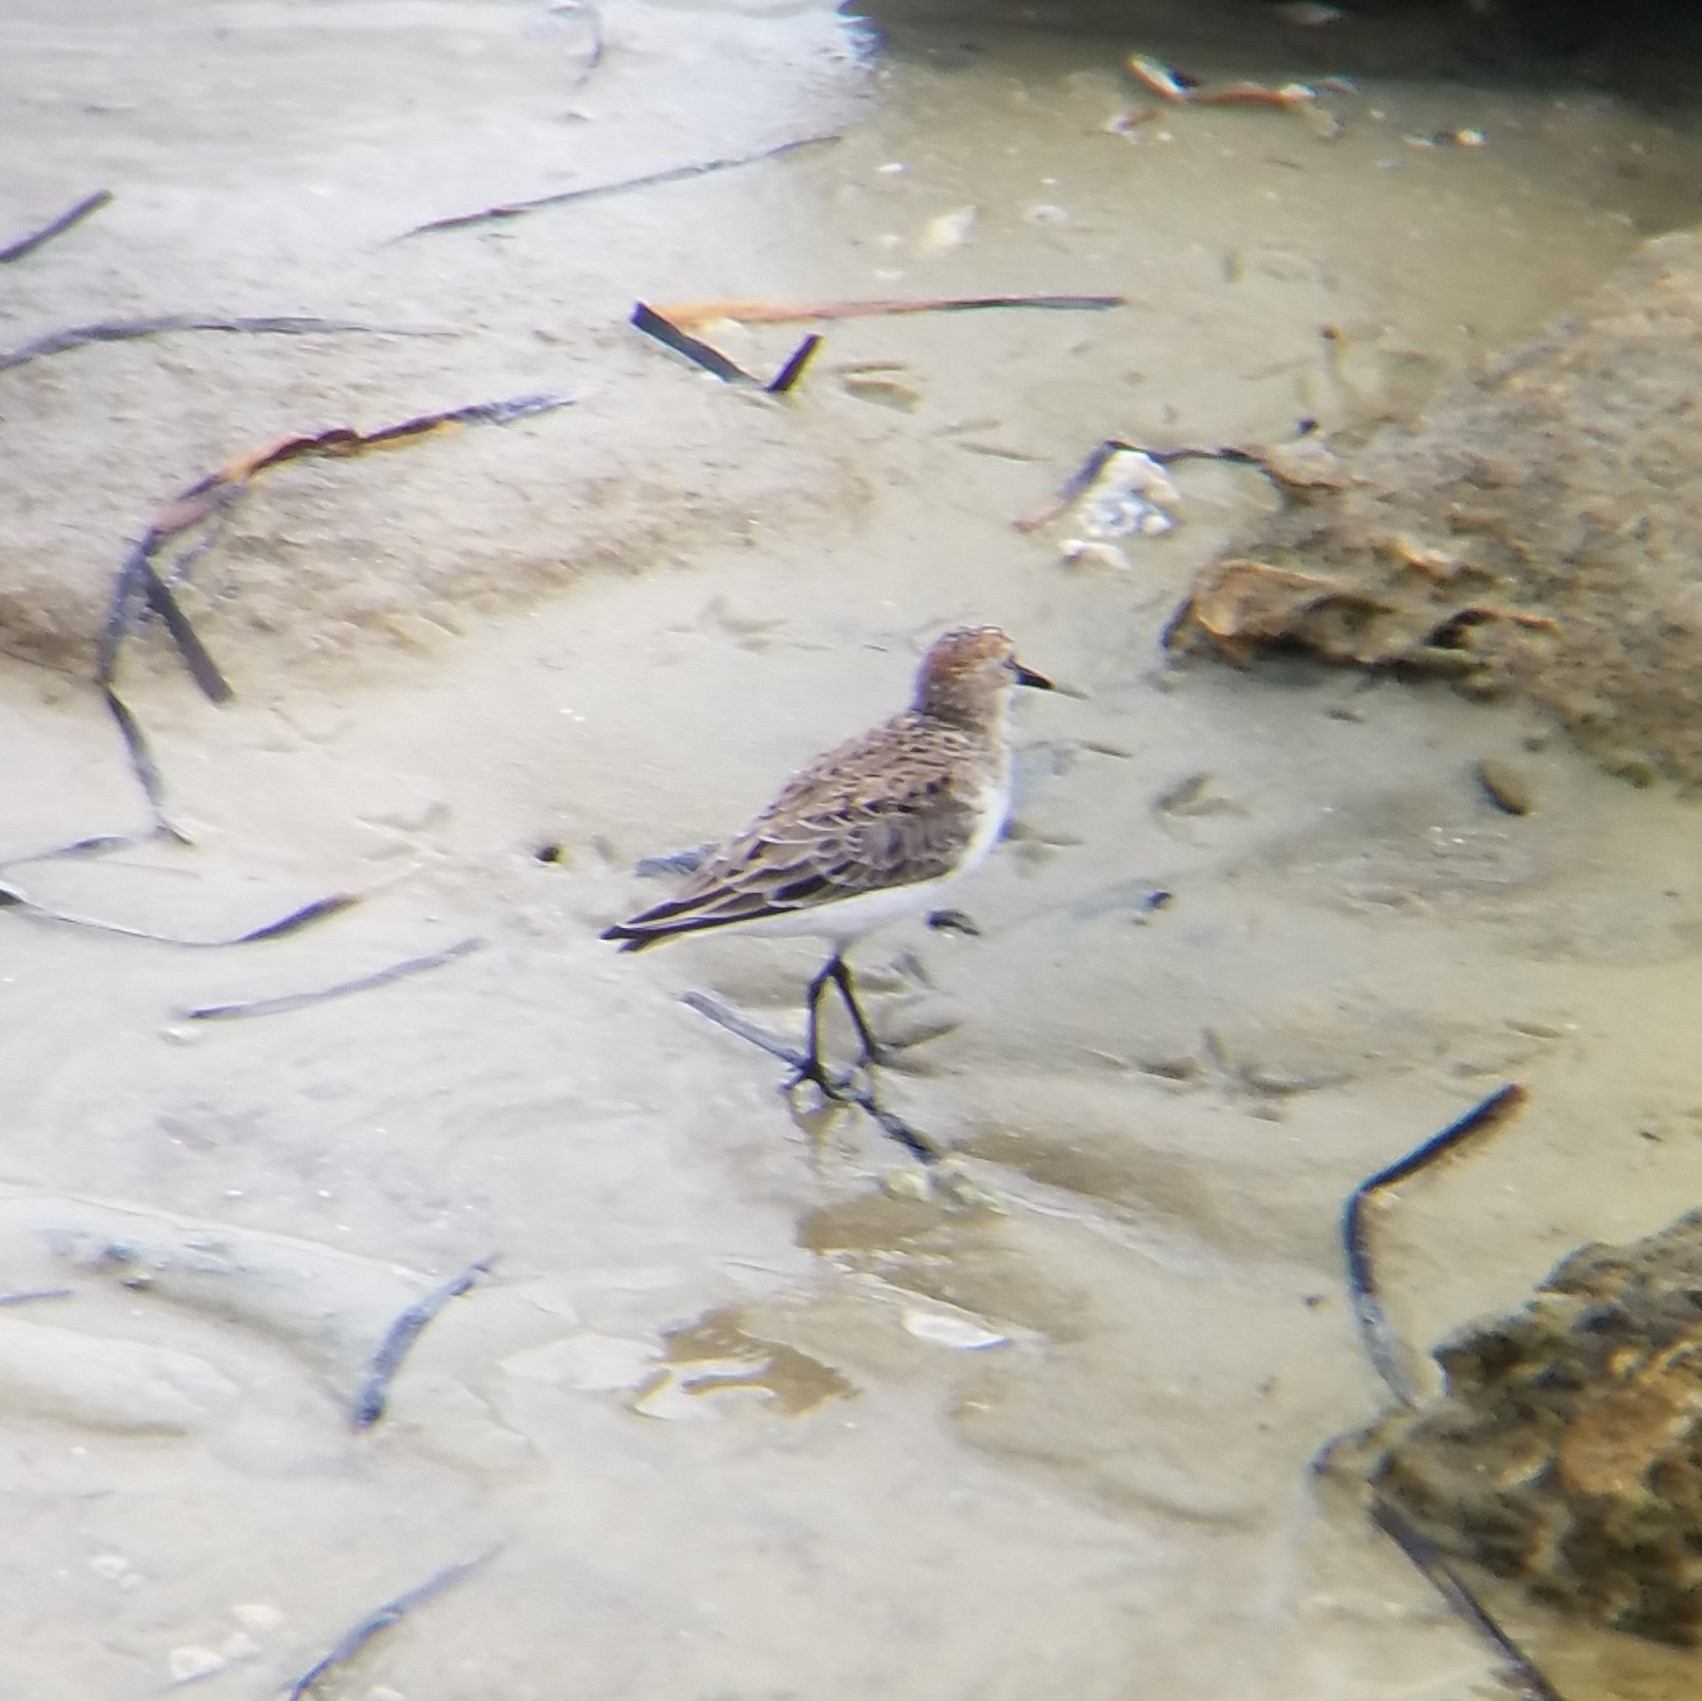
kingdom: Animalia
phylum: Chordata
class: Aves
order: Charadriiformes
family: Scolopacidae
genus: Calidris
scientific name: Calidris pusilla
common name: Semipalmated sandpiper
